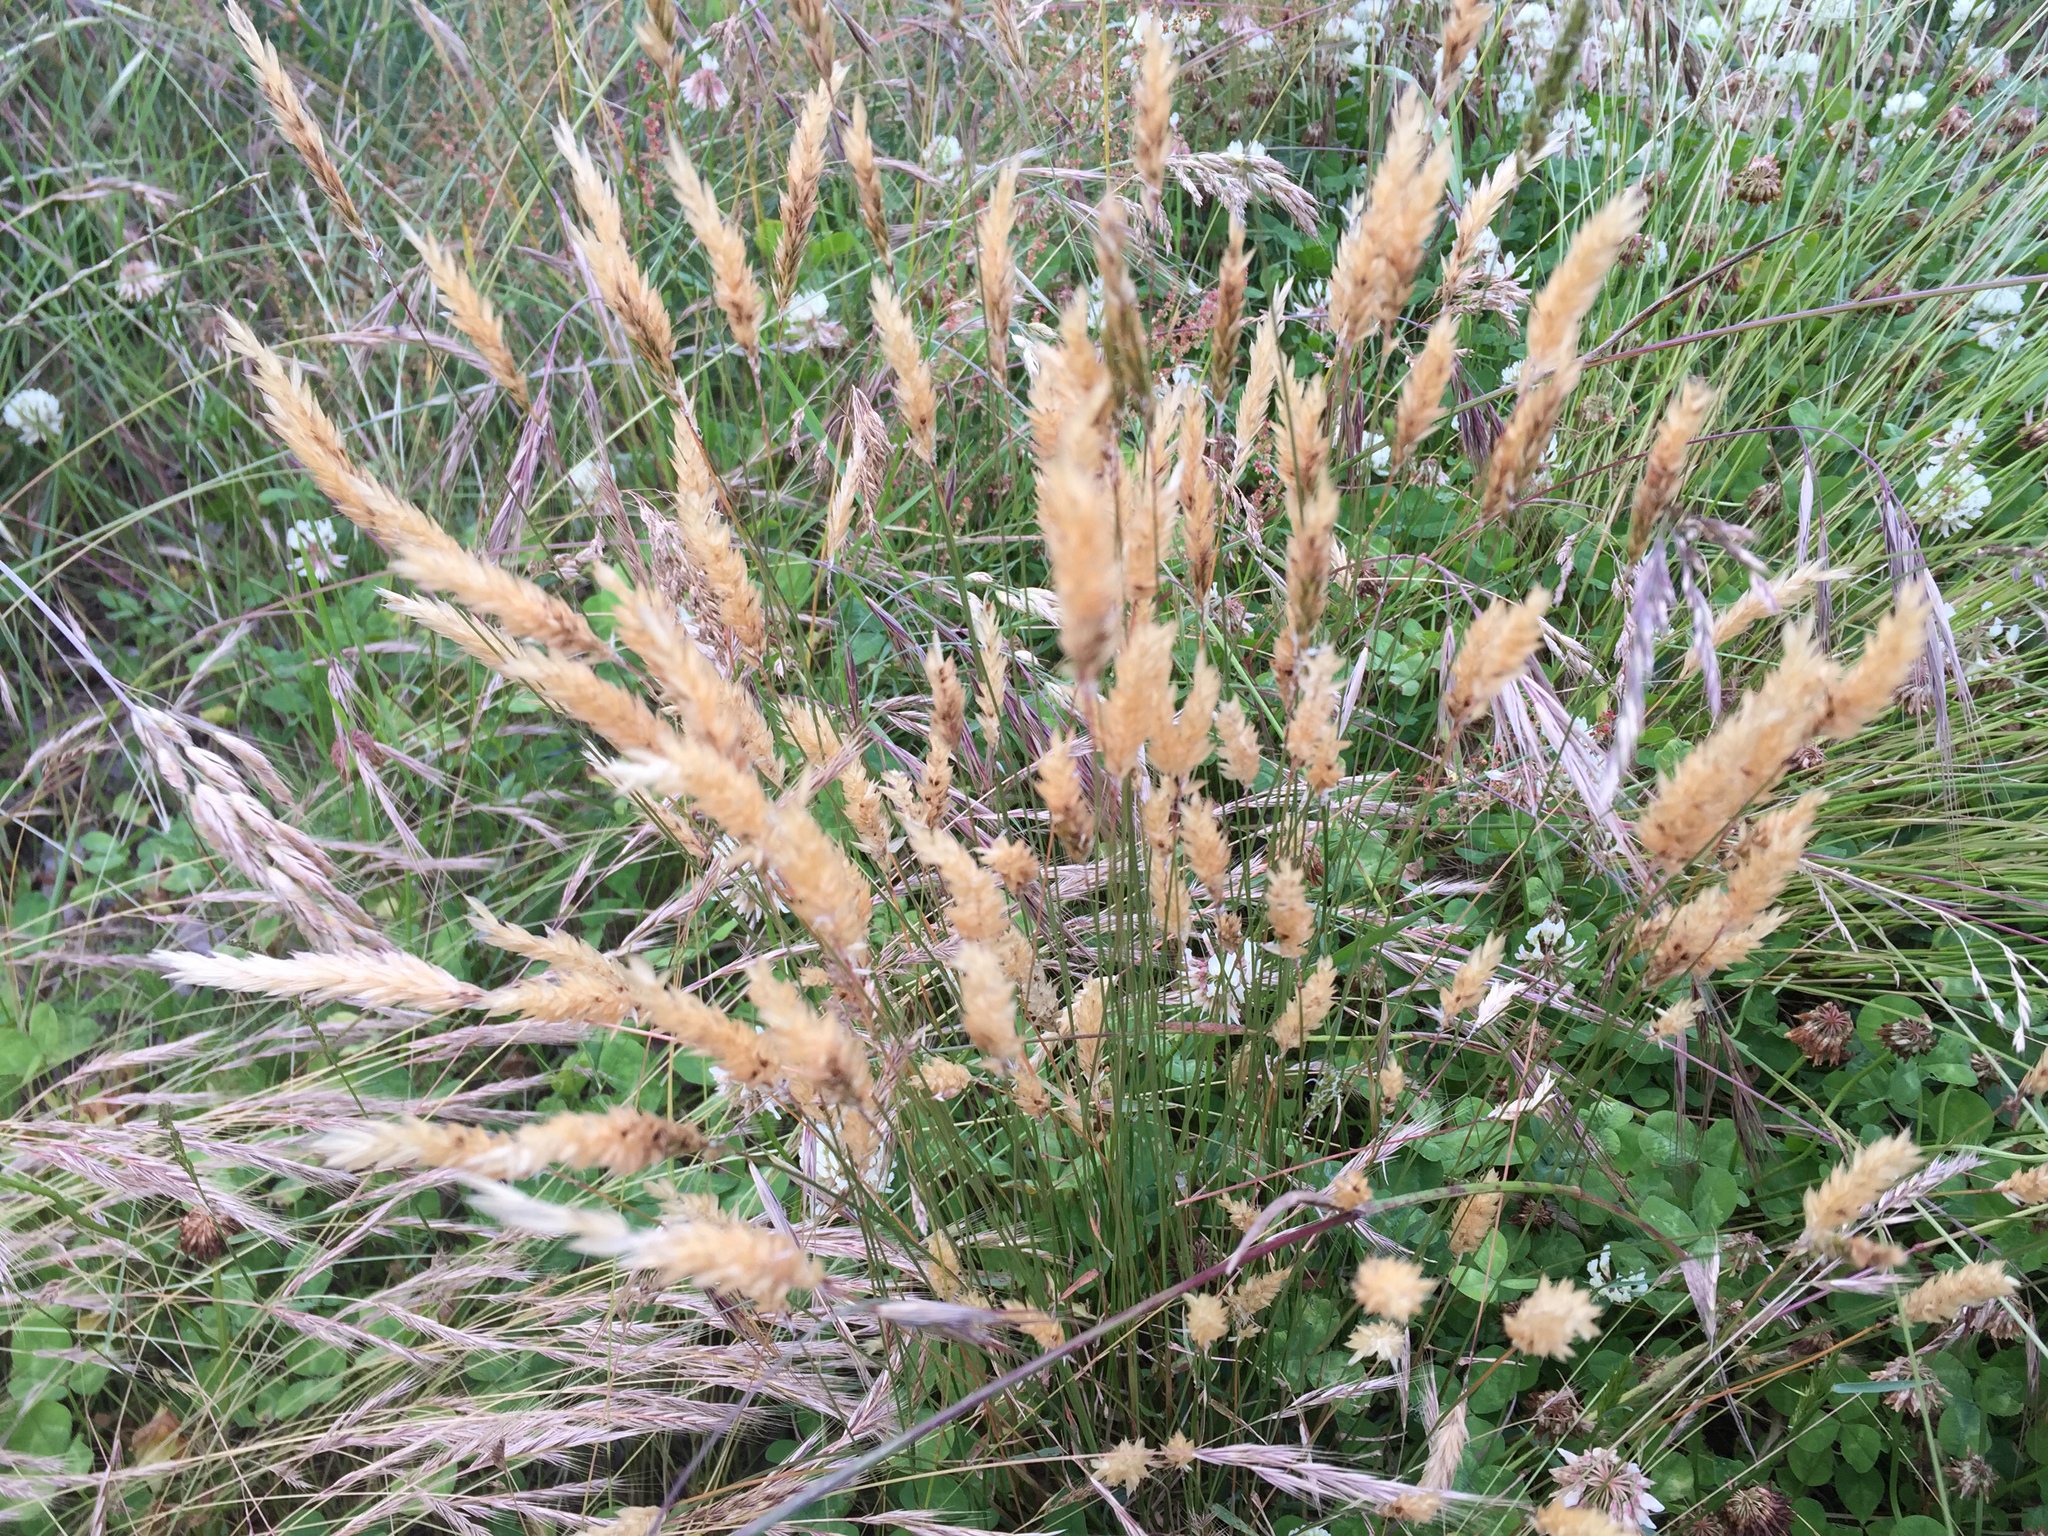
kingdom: Plantae
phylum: Tracheophyta
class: Liliopsida
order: Poales
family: Poaceae
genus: Anthoxanthum
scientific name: Anthoxanthum odoratum
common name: Sweet vernalgrass
